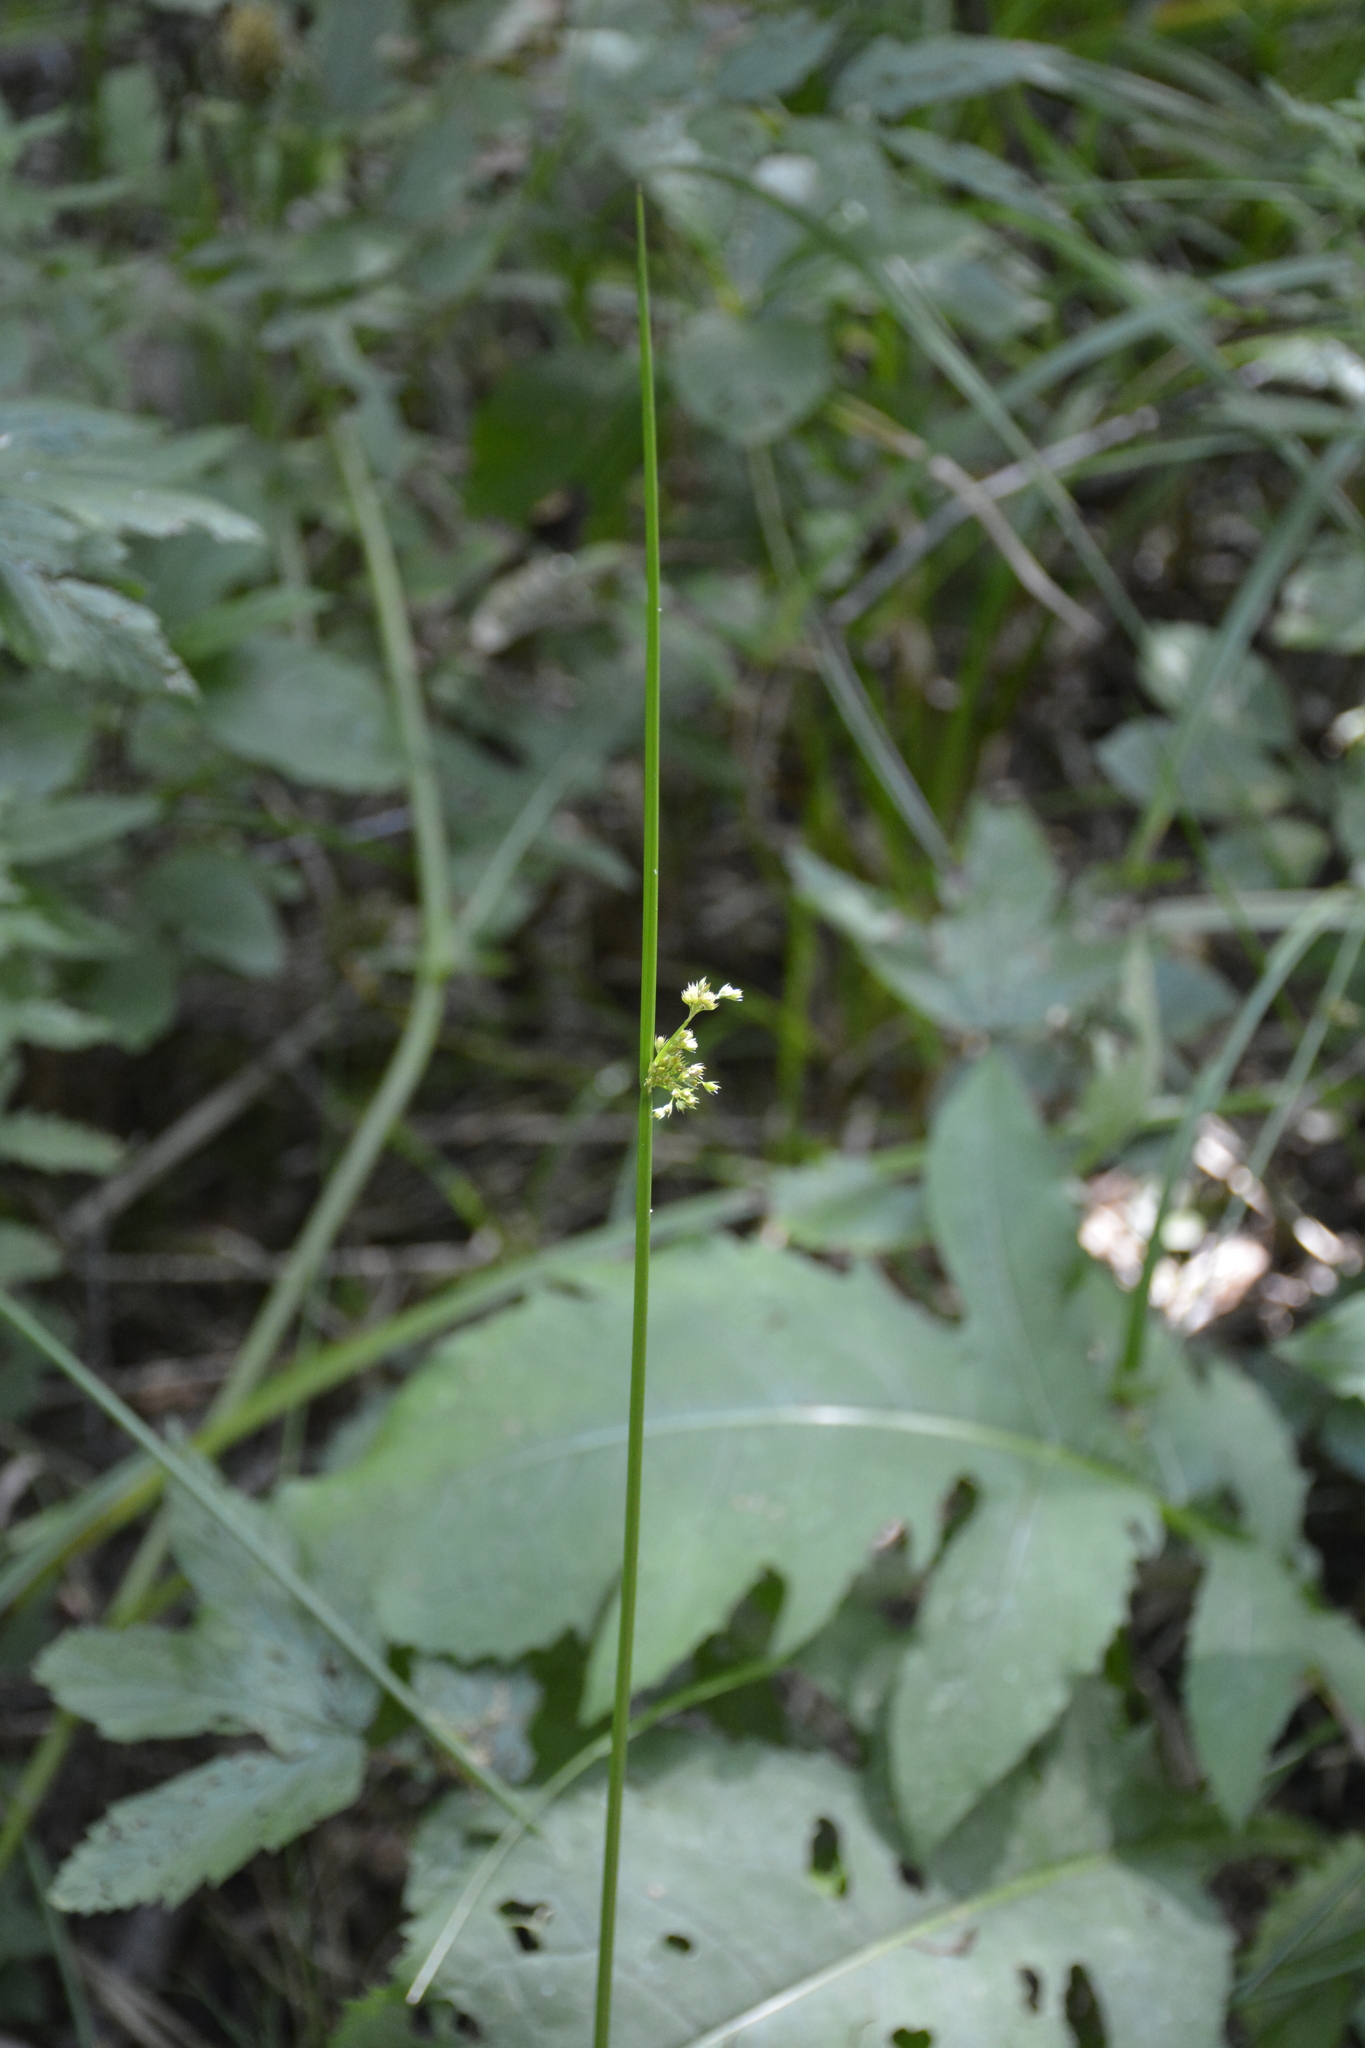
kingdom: Plantae
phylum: Tracheophyta
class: Liliopsida
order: Poales
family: Juncaceae
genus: Juncus
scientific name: Juncus effusus
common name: Soft rush
